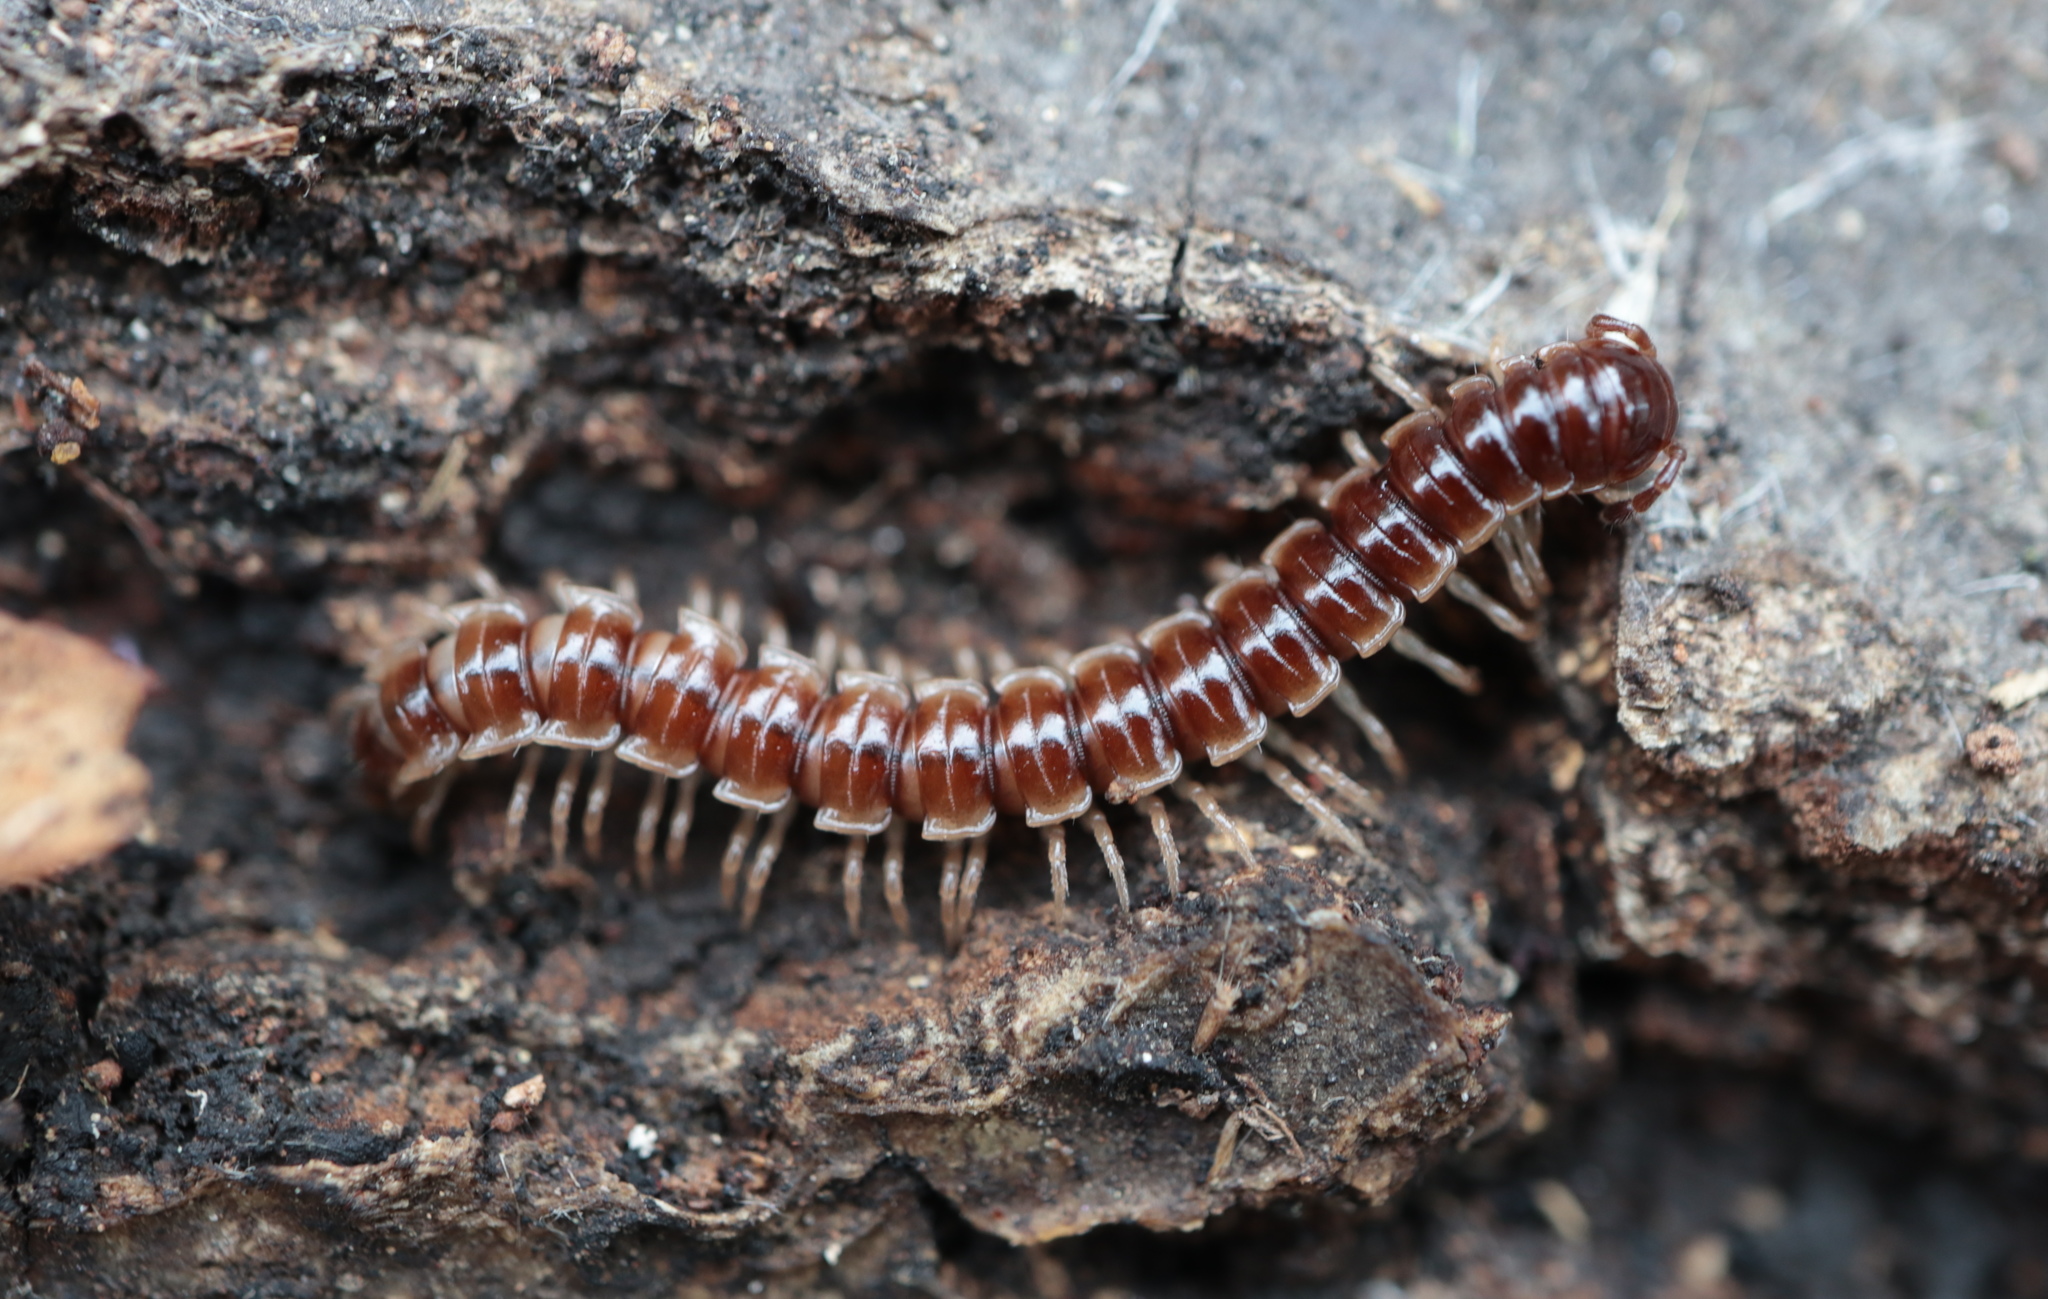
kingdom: Animalia
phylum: Arthropoda
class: Diplopoda
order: Polydesmida
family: Paradoxosomatidae
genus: Oxidus
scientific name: Oxidus gracilis
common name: Greenhouse millipede
